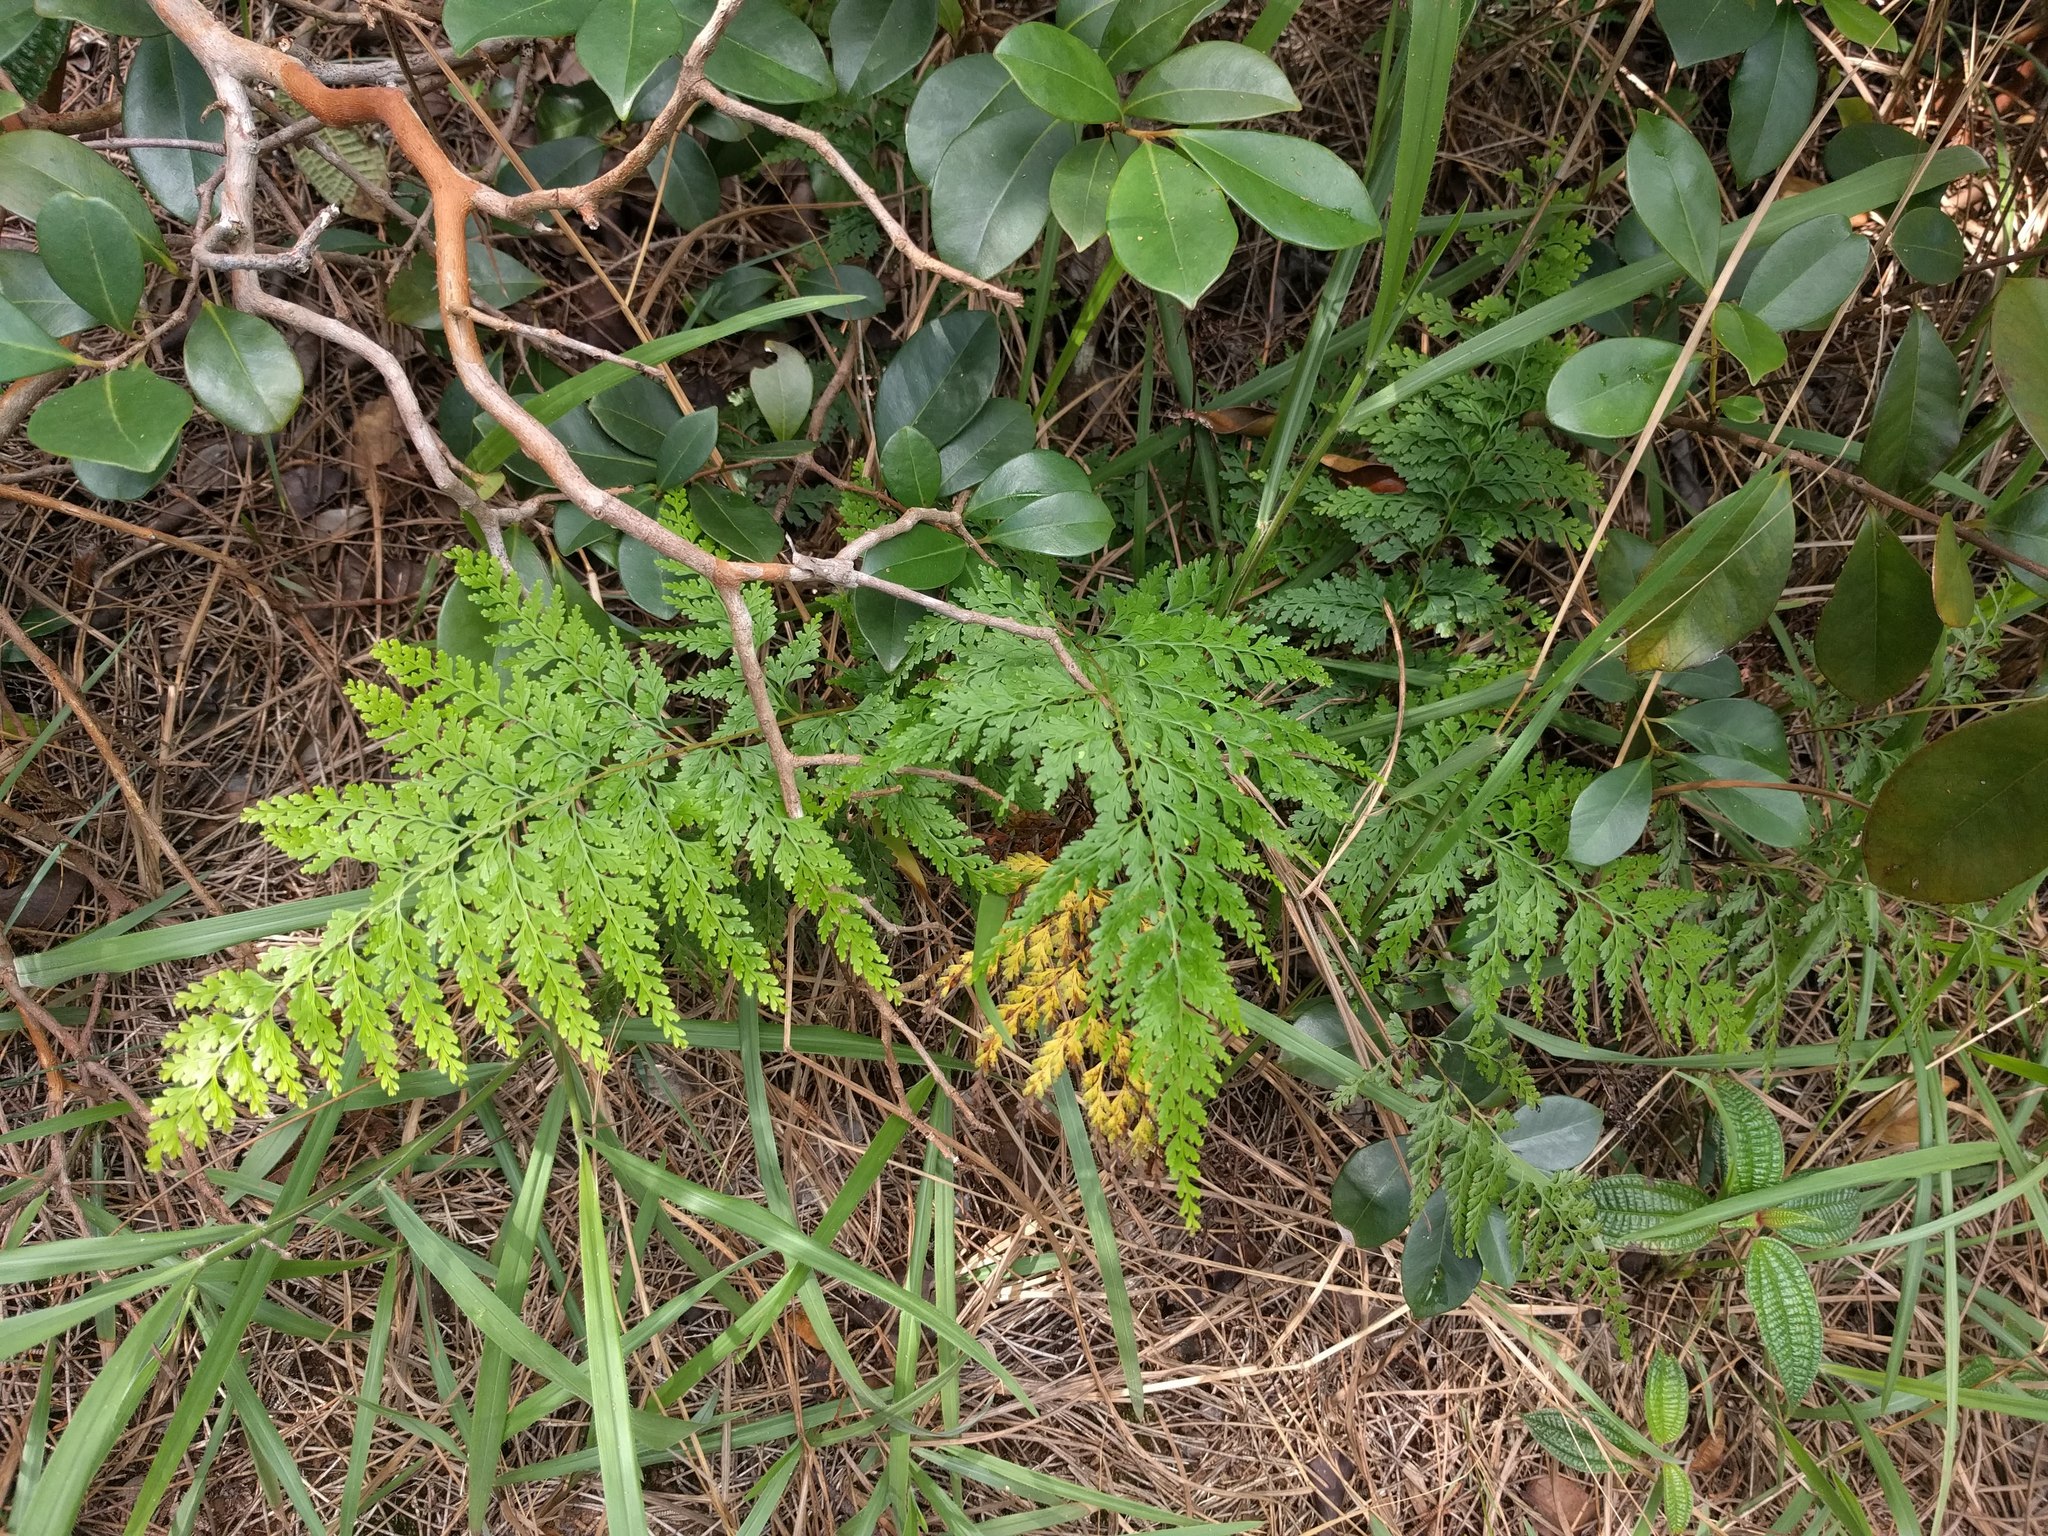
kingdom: Plantae
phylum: Tracheophyta
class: Polypodiopsida
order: Polypodiales
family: Lindsaeaceae
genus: Odontosoria
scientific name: Odontosoria chinensis
